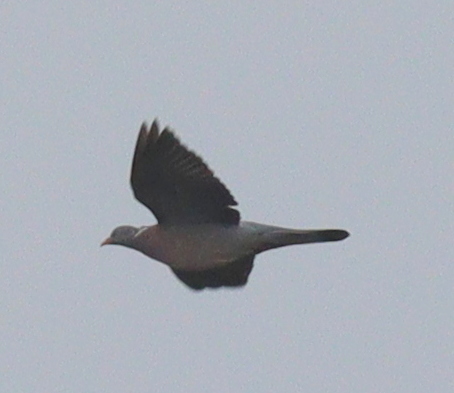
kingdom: Animalia
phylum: Chordata
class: Aves
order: Columbiformes
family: Columbidae
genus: Columba
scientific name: Columba palumbus
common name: Common wood pigeon
